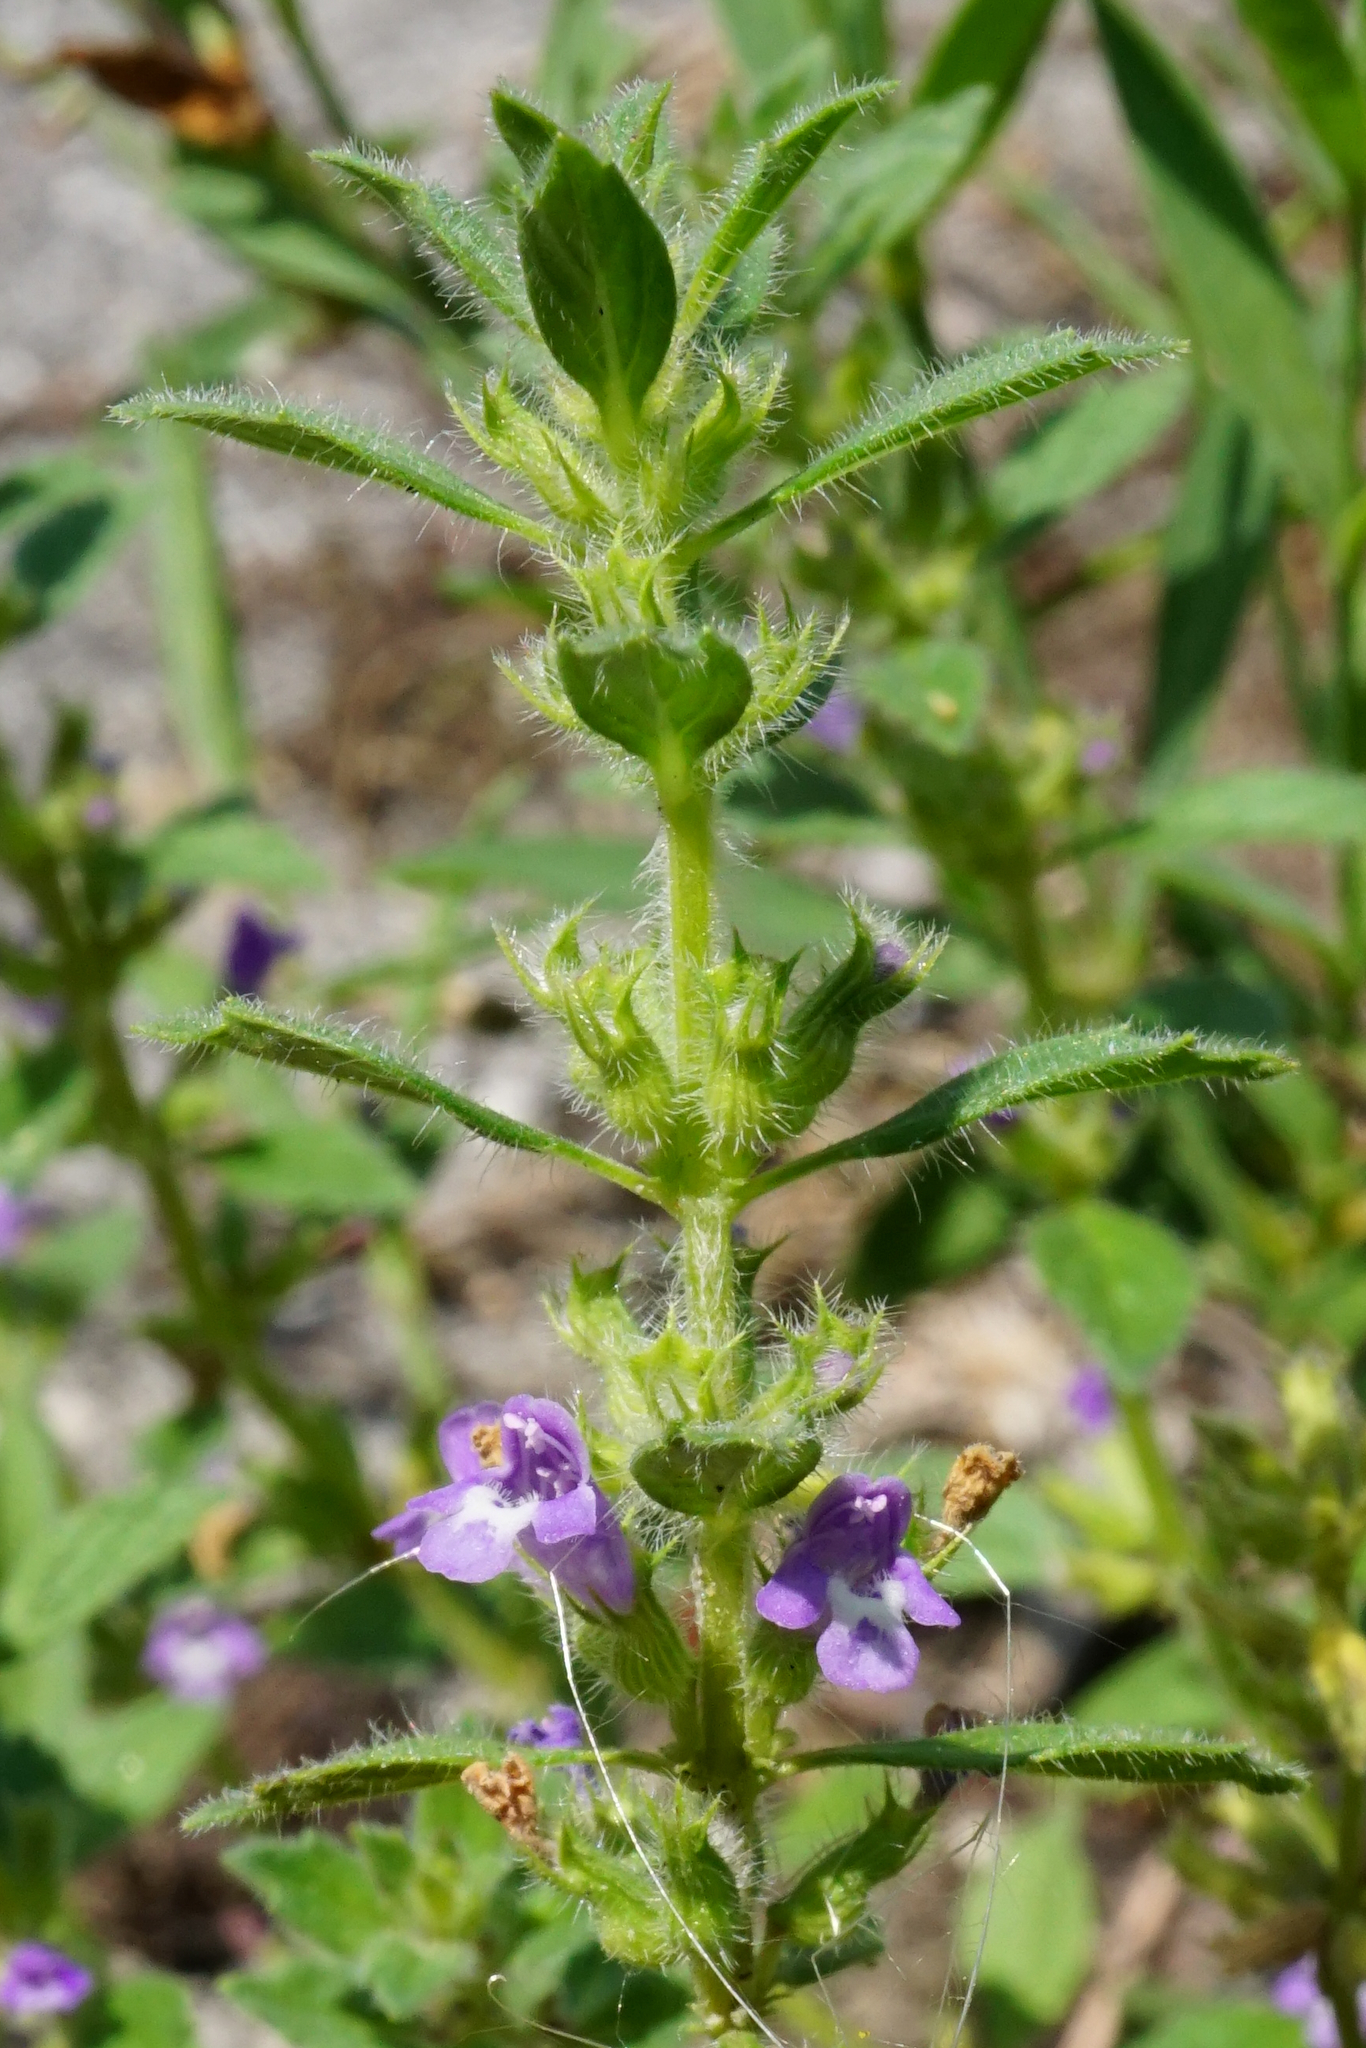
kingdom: Plantae
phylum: Tracheophyta
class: Magnoliopsida
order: Lamiales
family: Lamiaceae
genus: Clinopodium
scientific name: Clinopodium acinos
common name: Basil thyme
